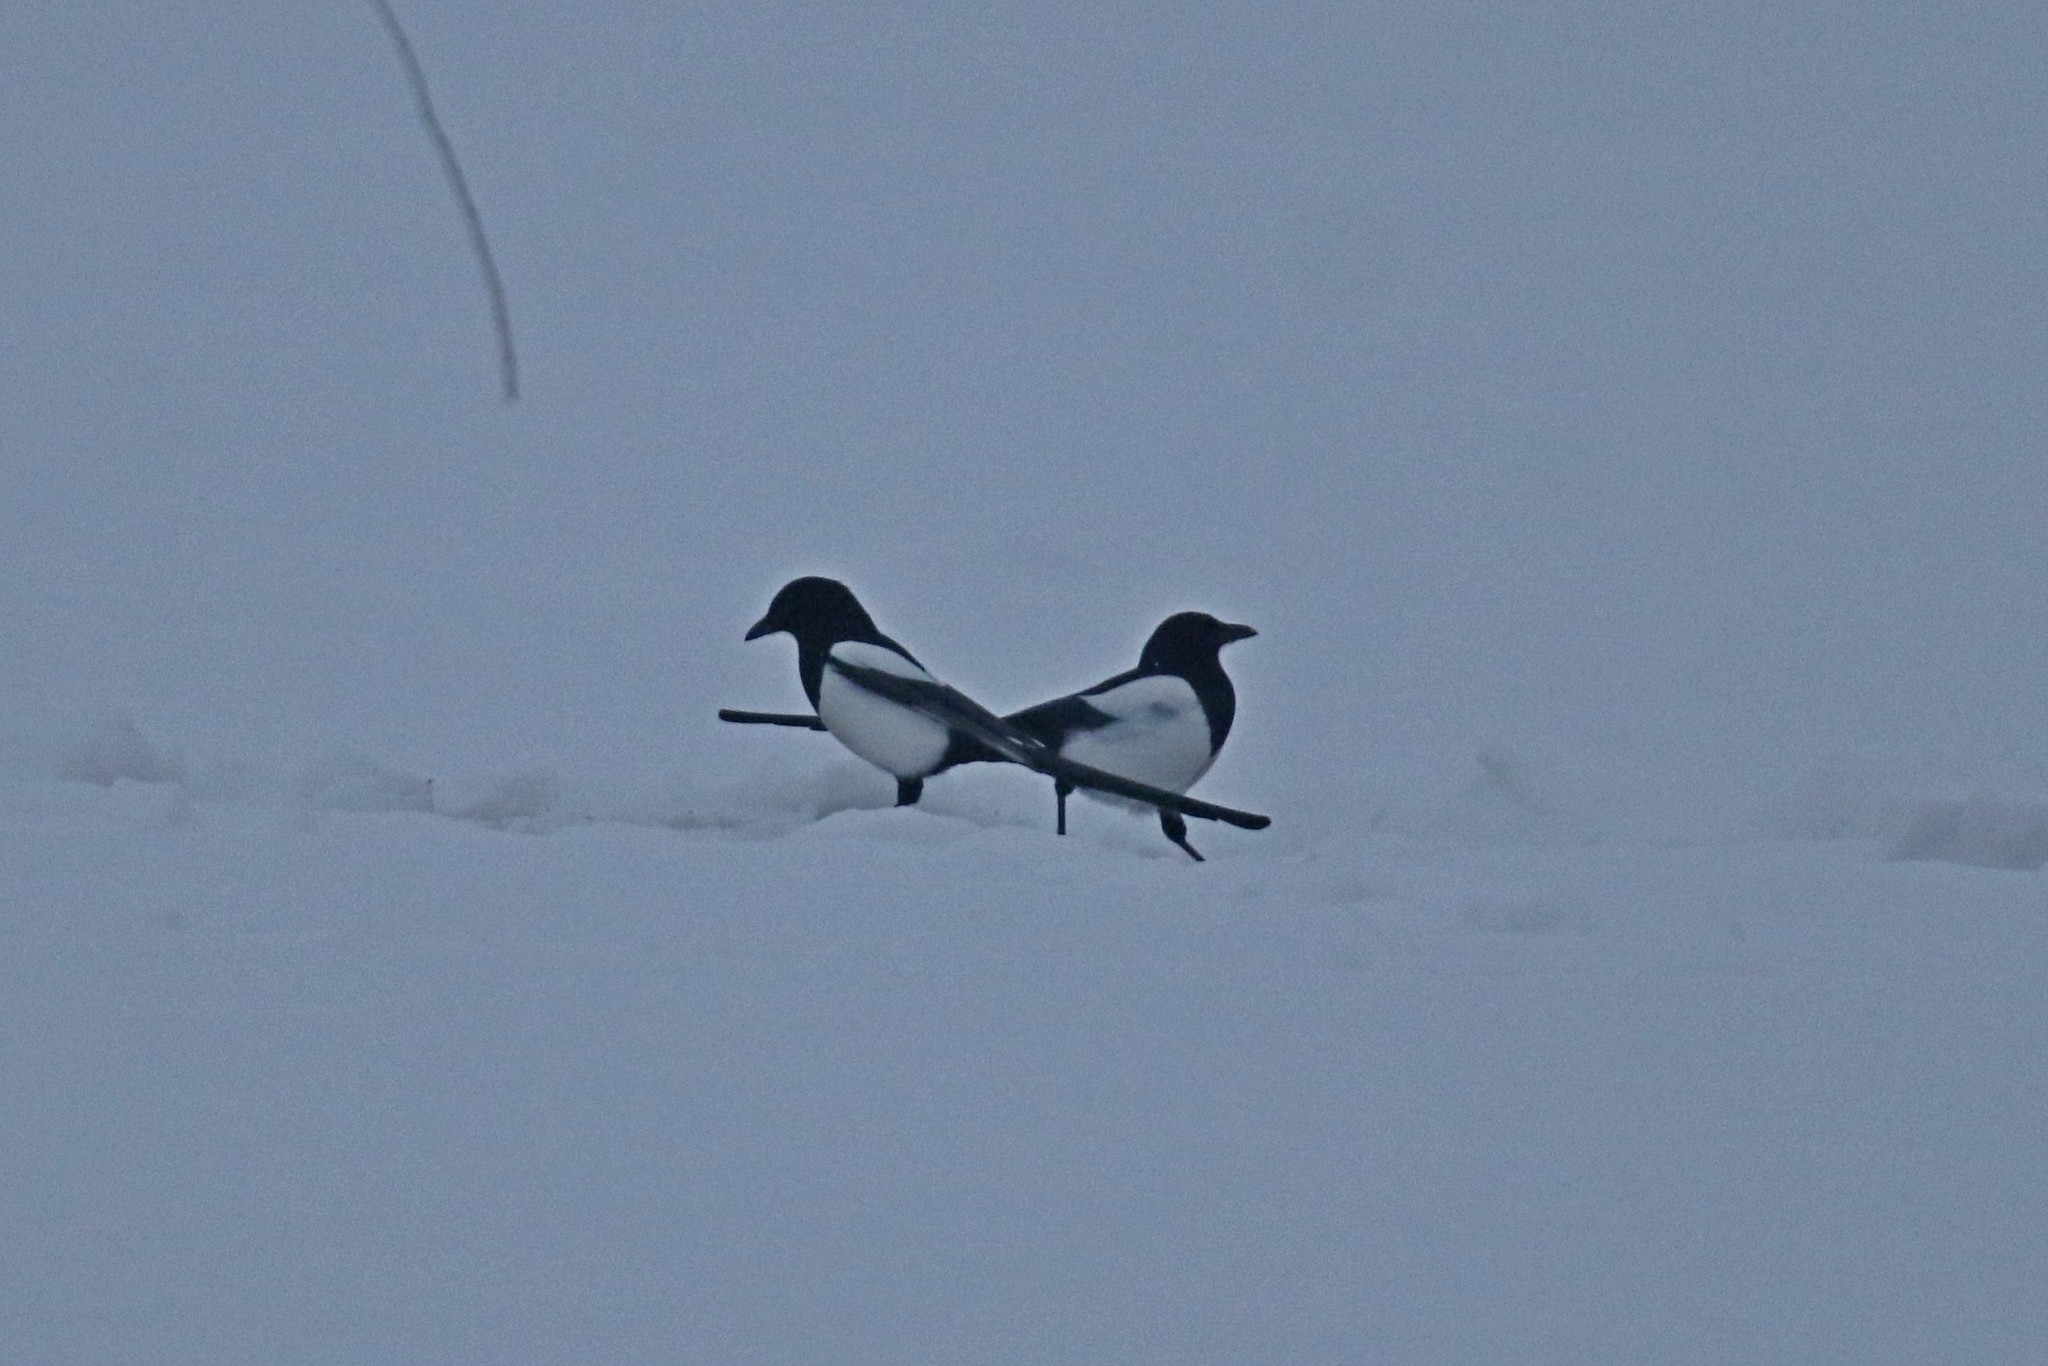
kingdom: Animalia
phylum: Chordata
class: Aves
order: Passeriformes
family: Corvidae
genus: Pica
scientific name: Pica pica
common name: Eurasian magpie
